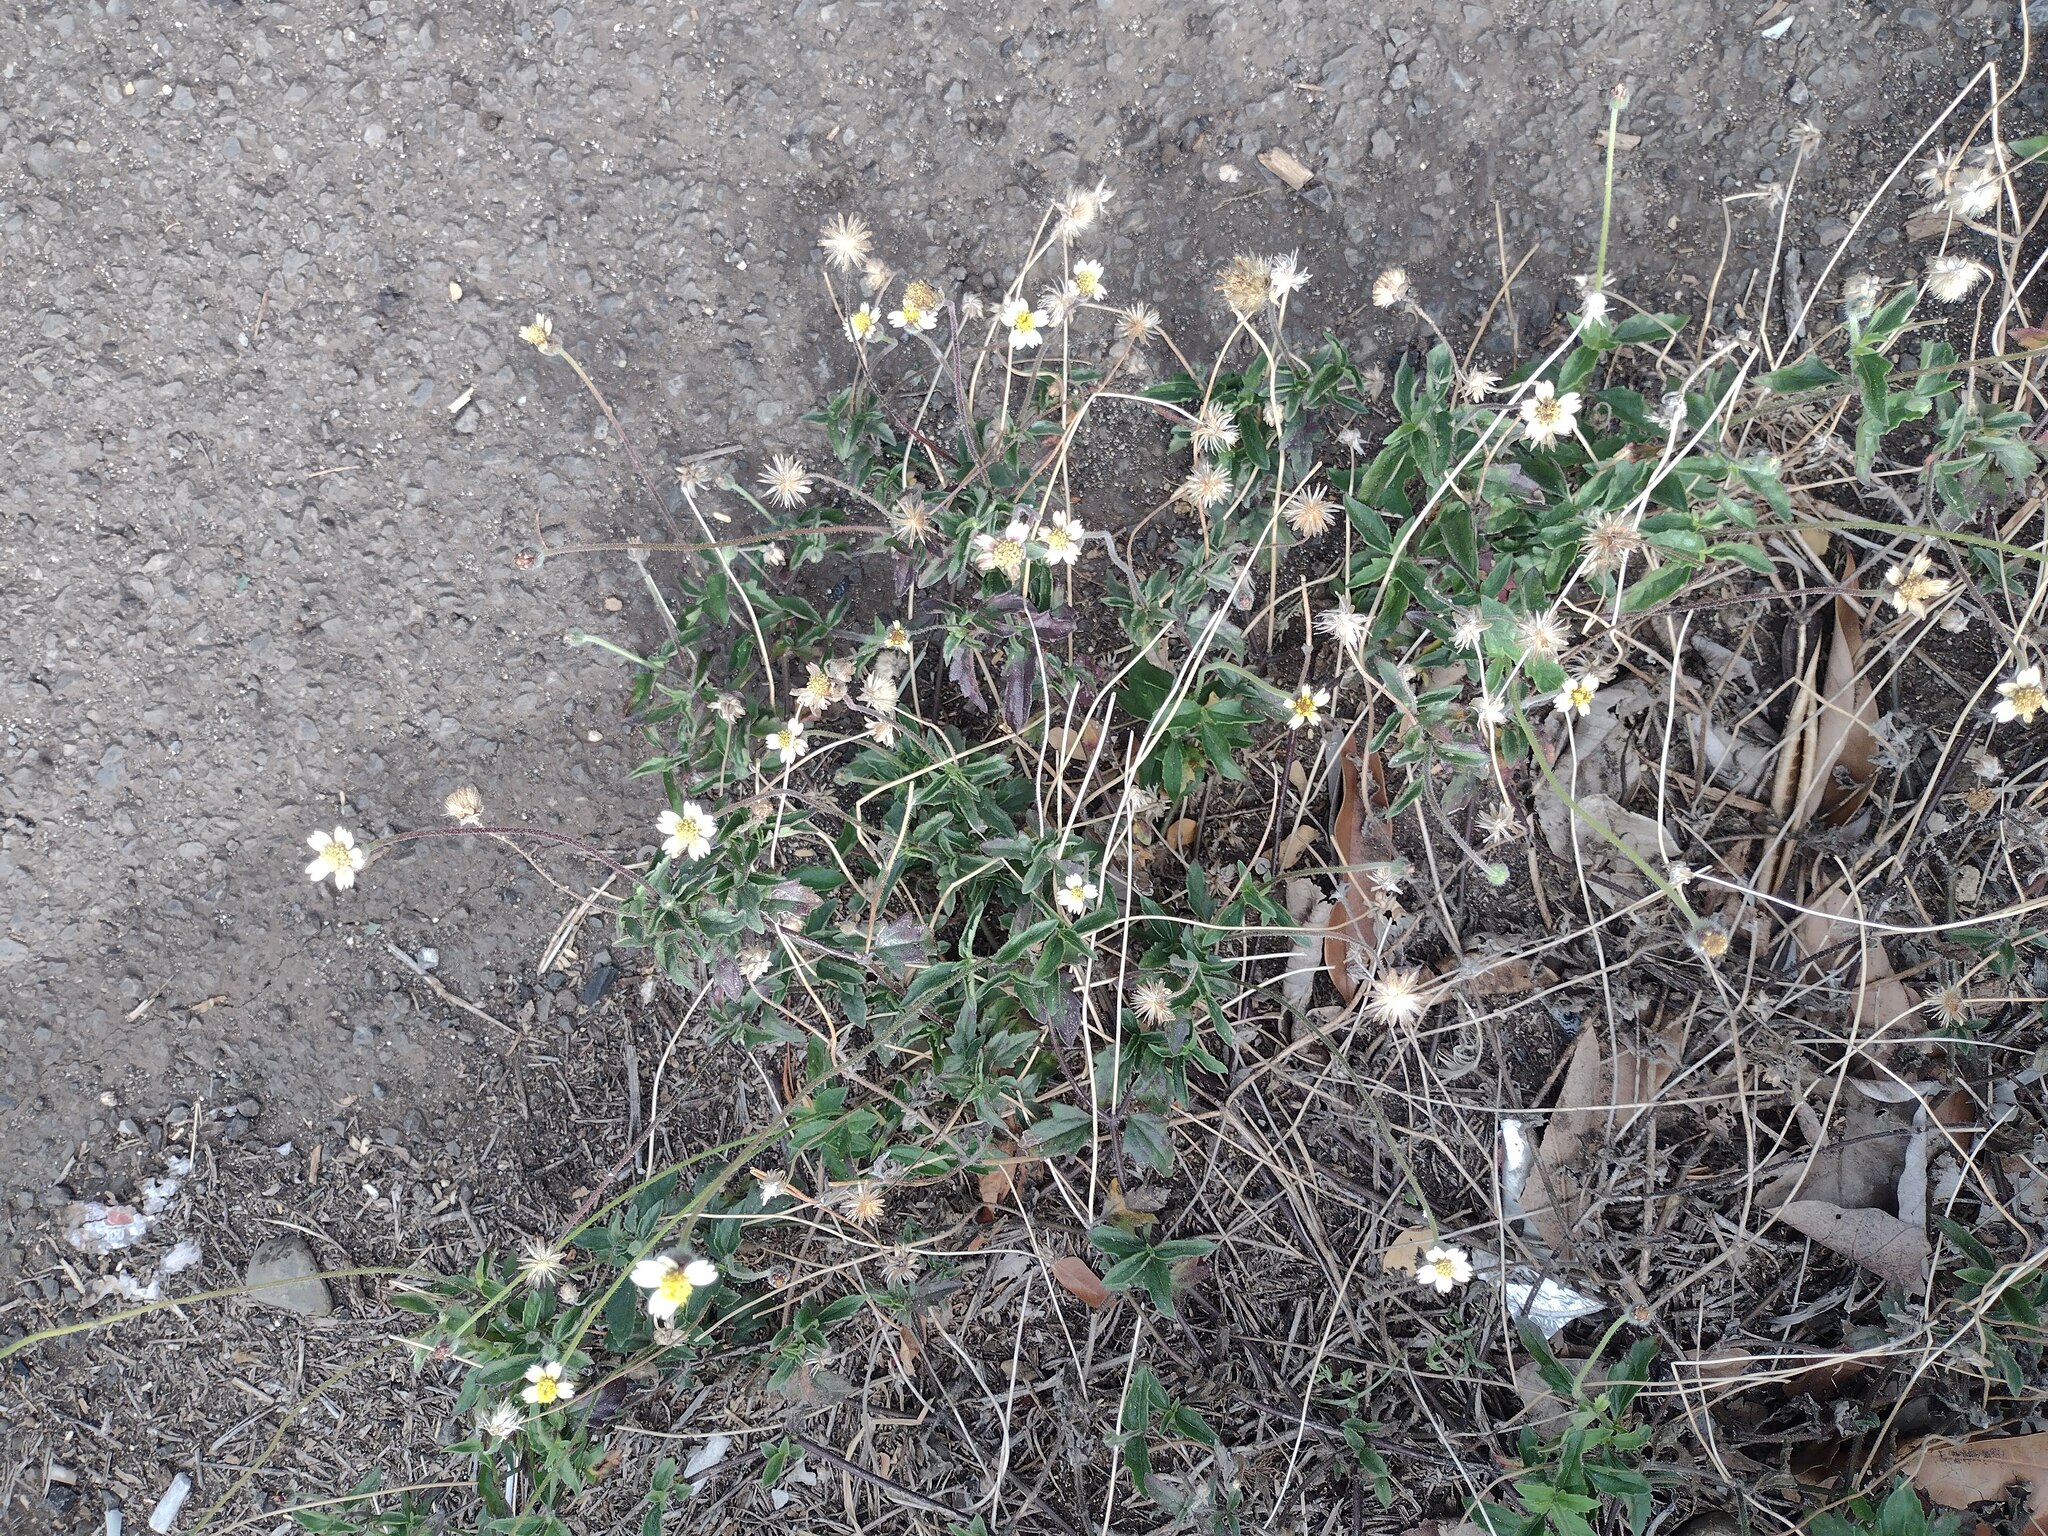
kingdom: Plantae
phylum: Tracheophyta
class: Magnoliopsida
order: Asterales
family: Asteraceae
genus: Tridax
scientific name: Tridax procumbens
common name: Coatbuttons
